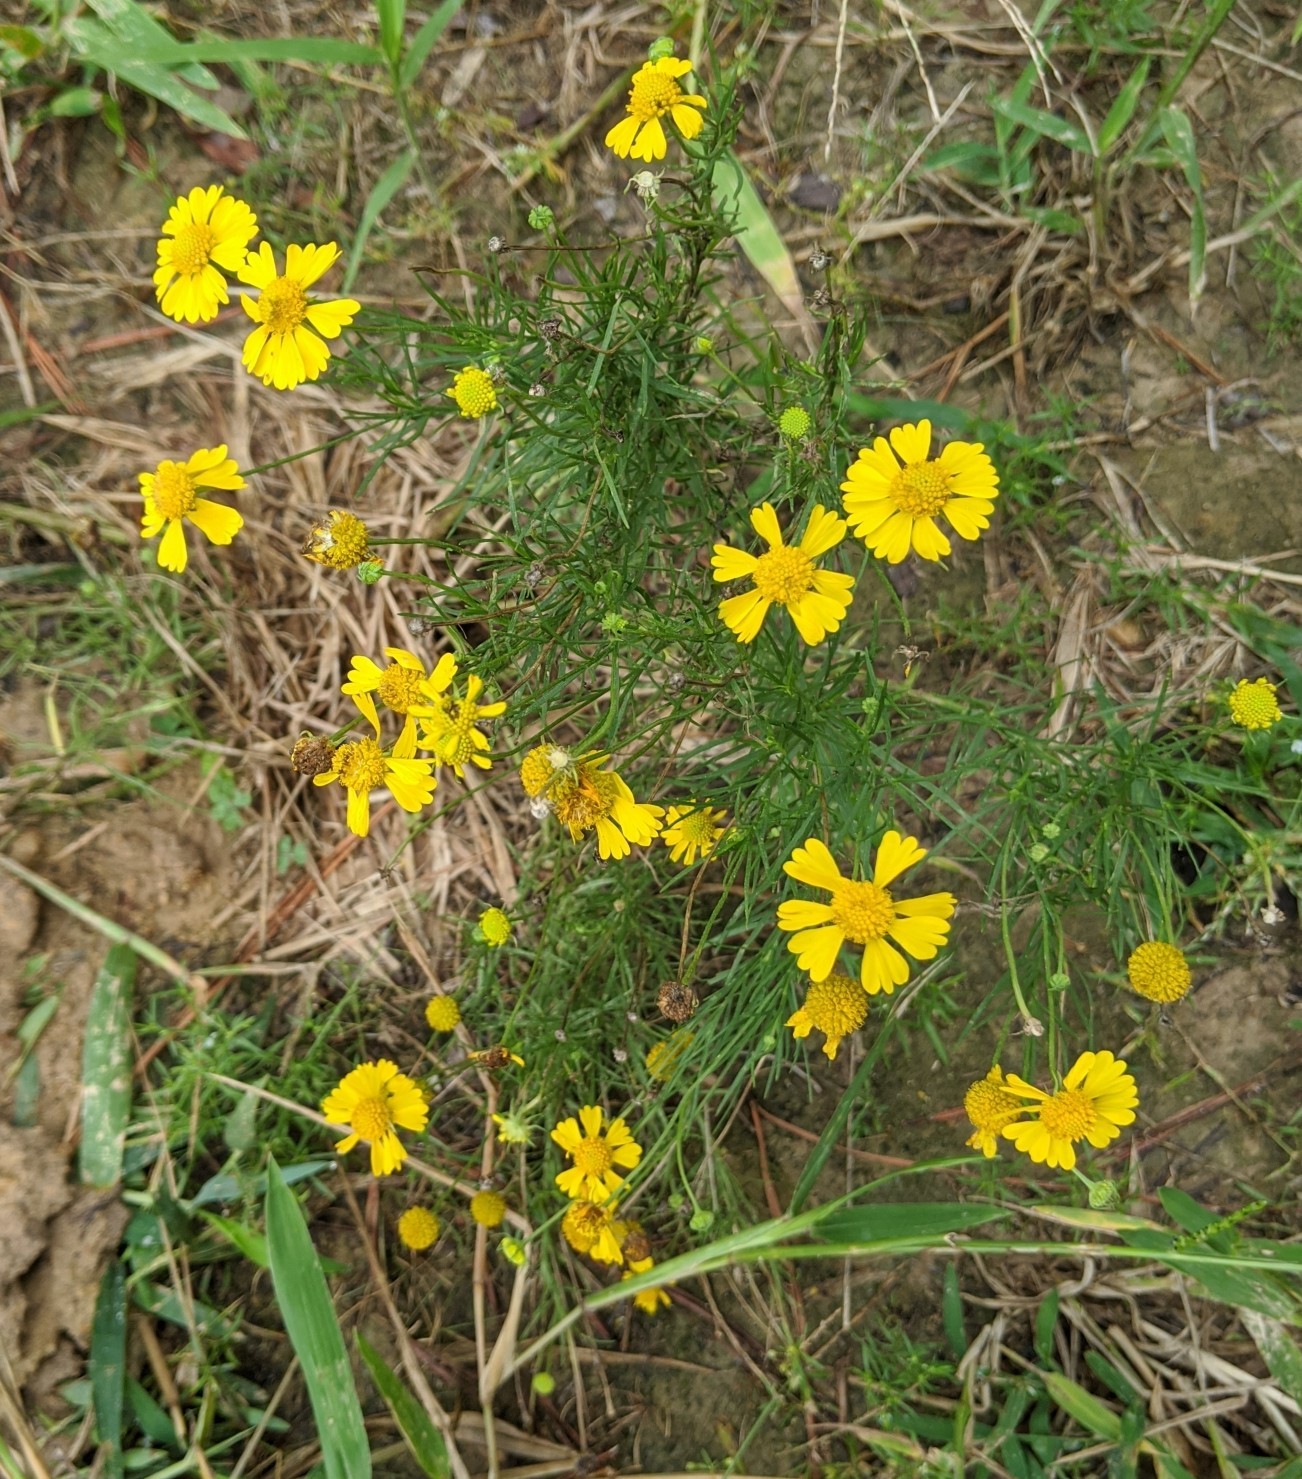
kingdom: Plantae
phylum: Tracheophyta
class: Magnoliopsida
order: Asterales
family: Asteraceae
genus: Helenium
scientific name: Helenium amarum
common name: Bitter sneezeweed
